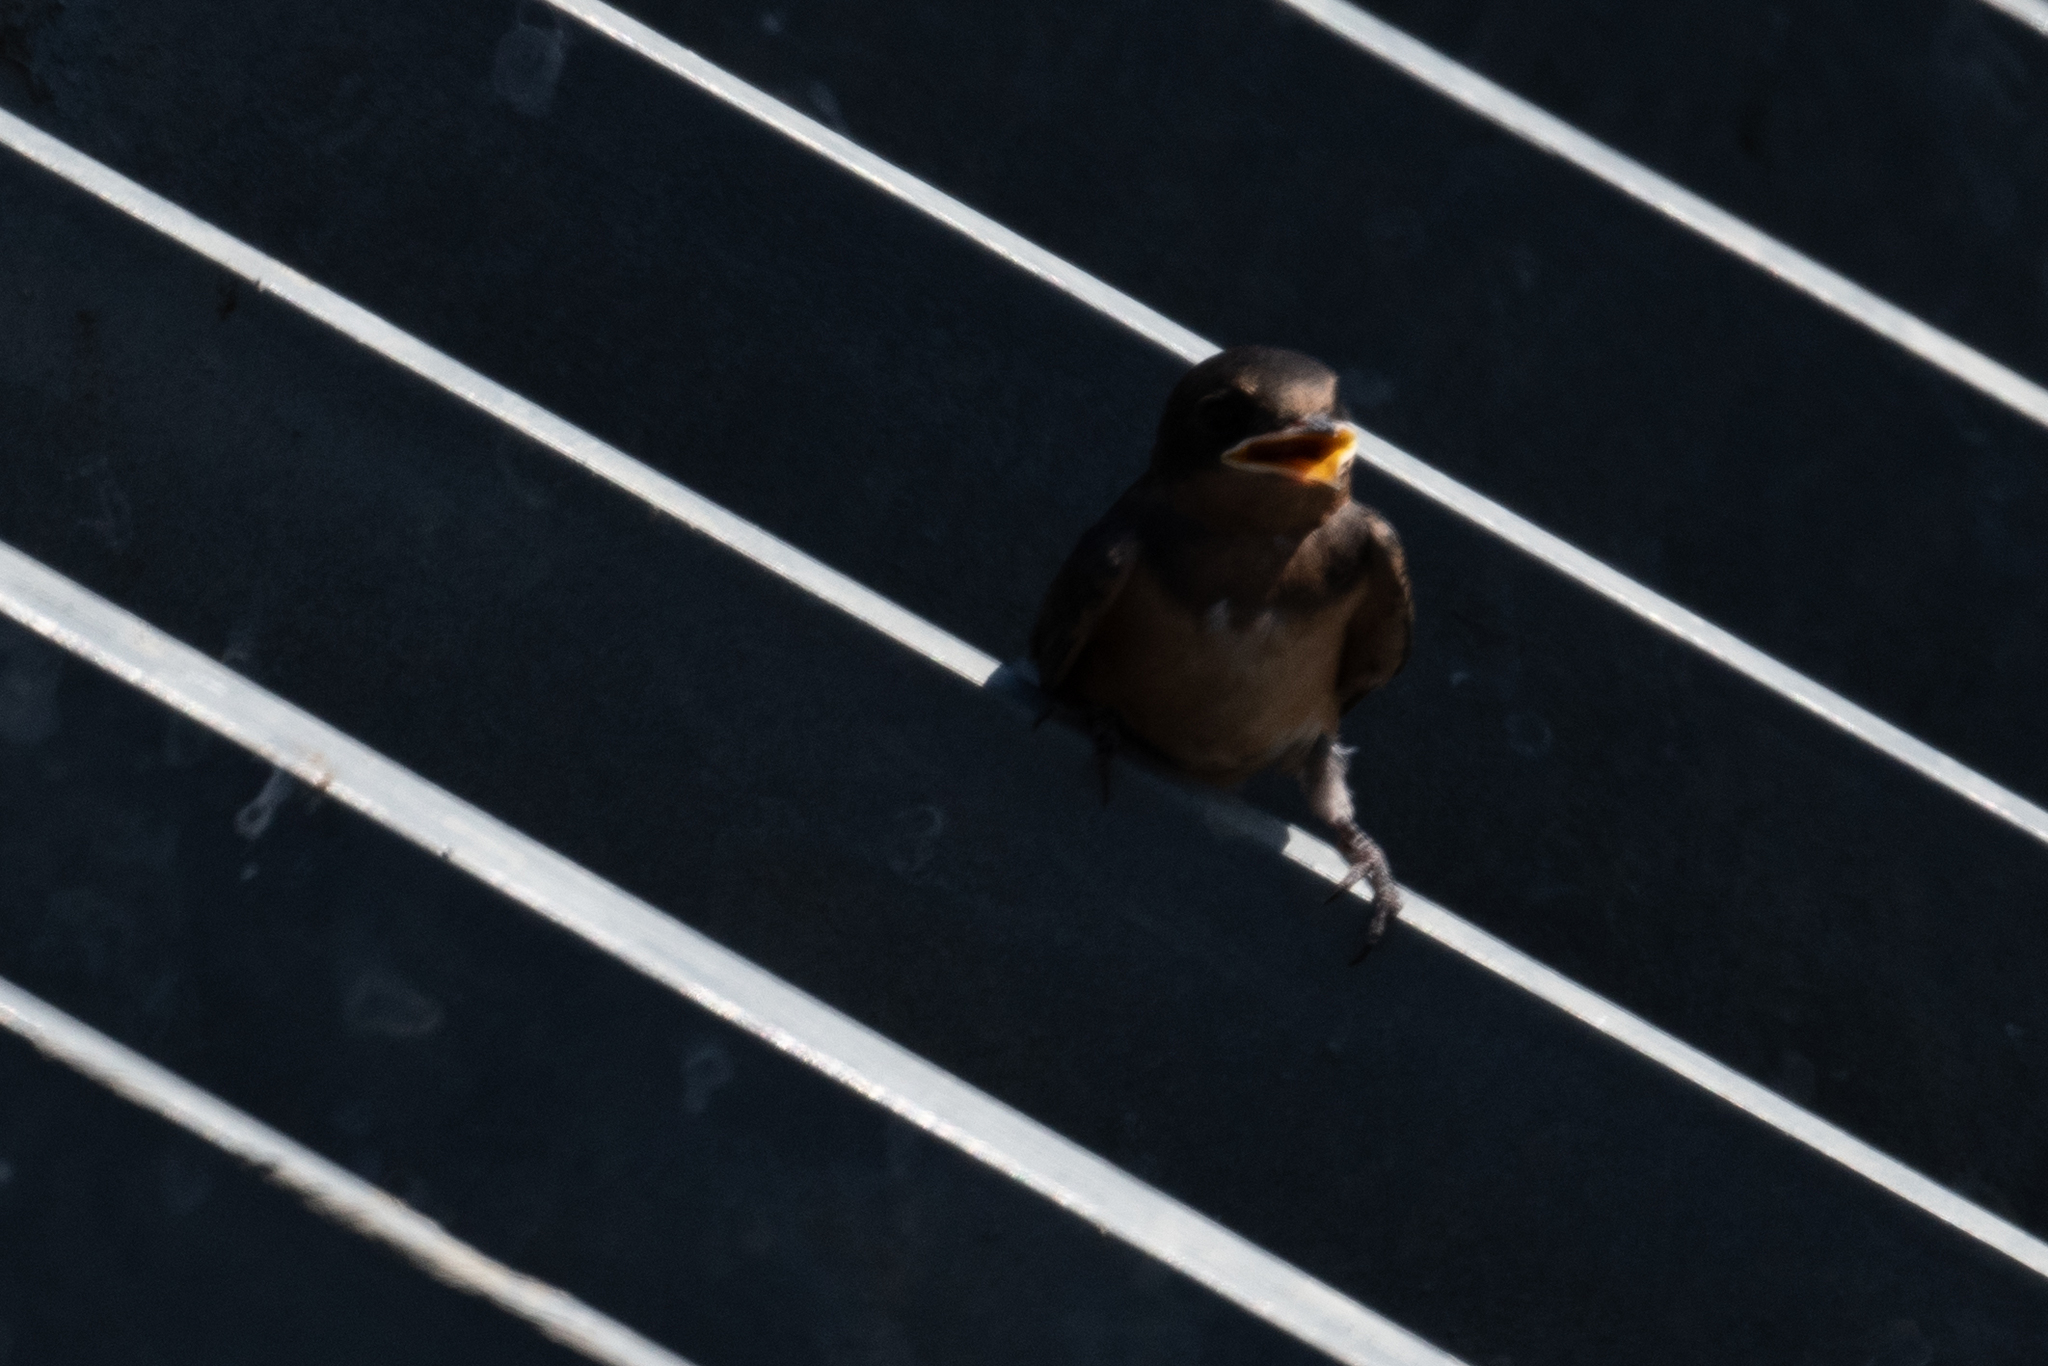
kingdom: Animalia
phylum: Chordata
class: Aves
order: Passeriformes
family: Hirundinidae
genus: Hirundo
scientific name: Hirundo rustica
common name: Barn swallow
